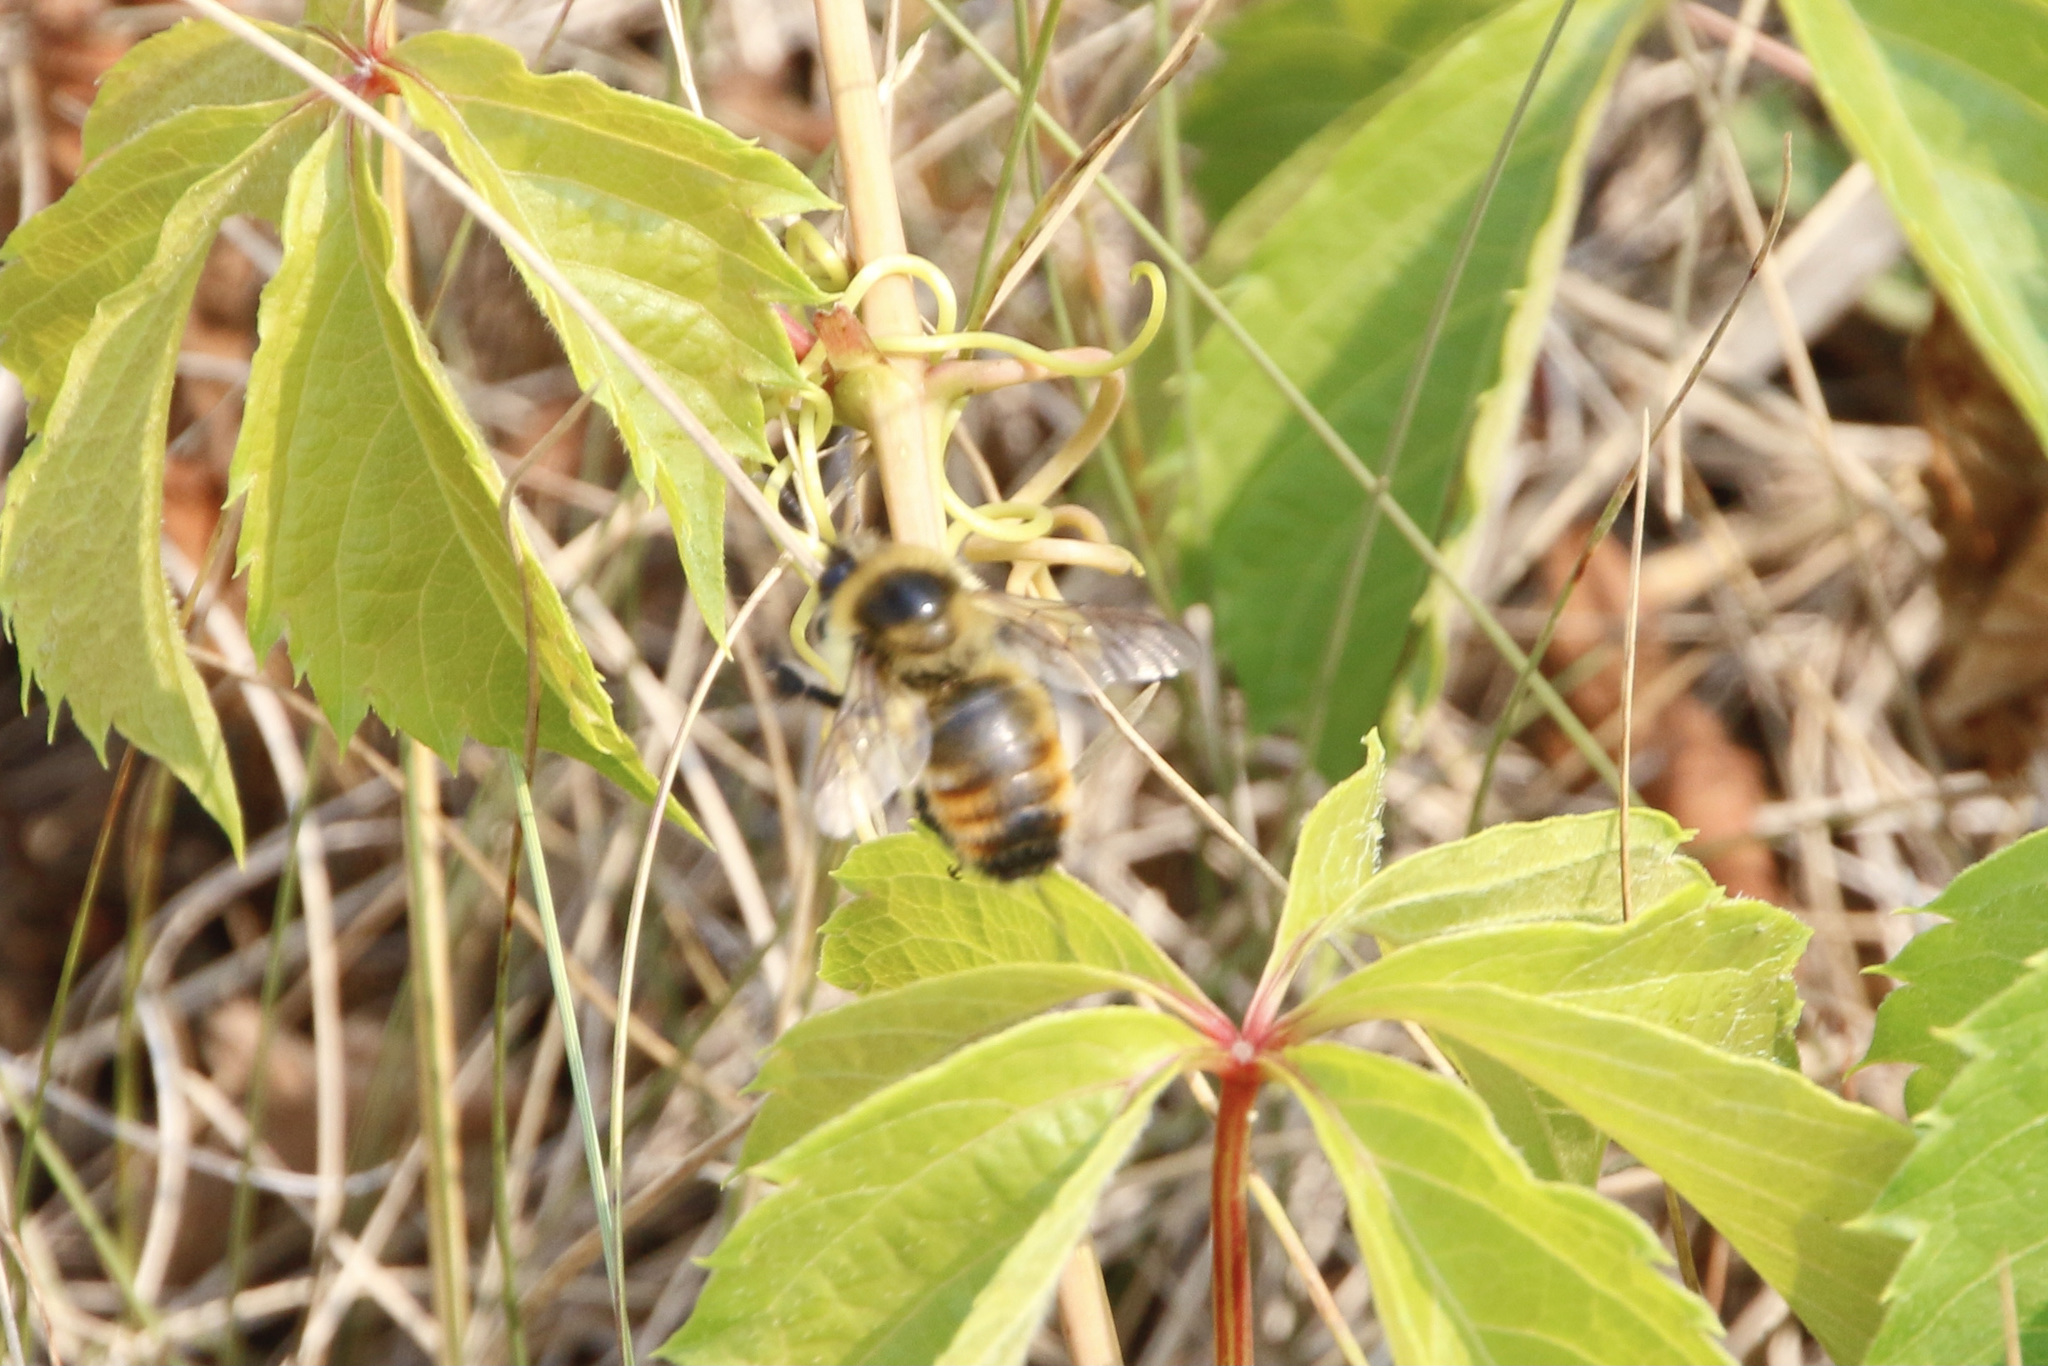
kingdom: Animalia
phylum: Arthropoda
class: Insecta
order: Hymenoptera
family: Apidae
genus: Bombus
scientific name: Bombus rufocinctus
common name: Red-belted bumble bee
